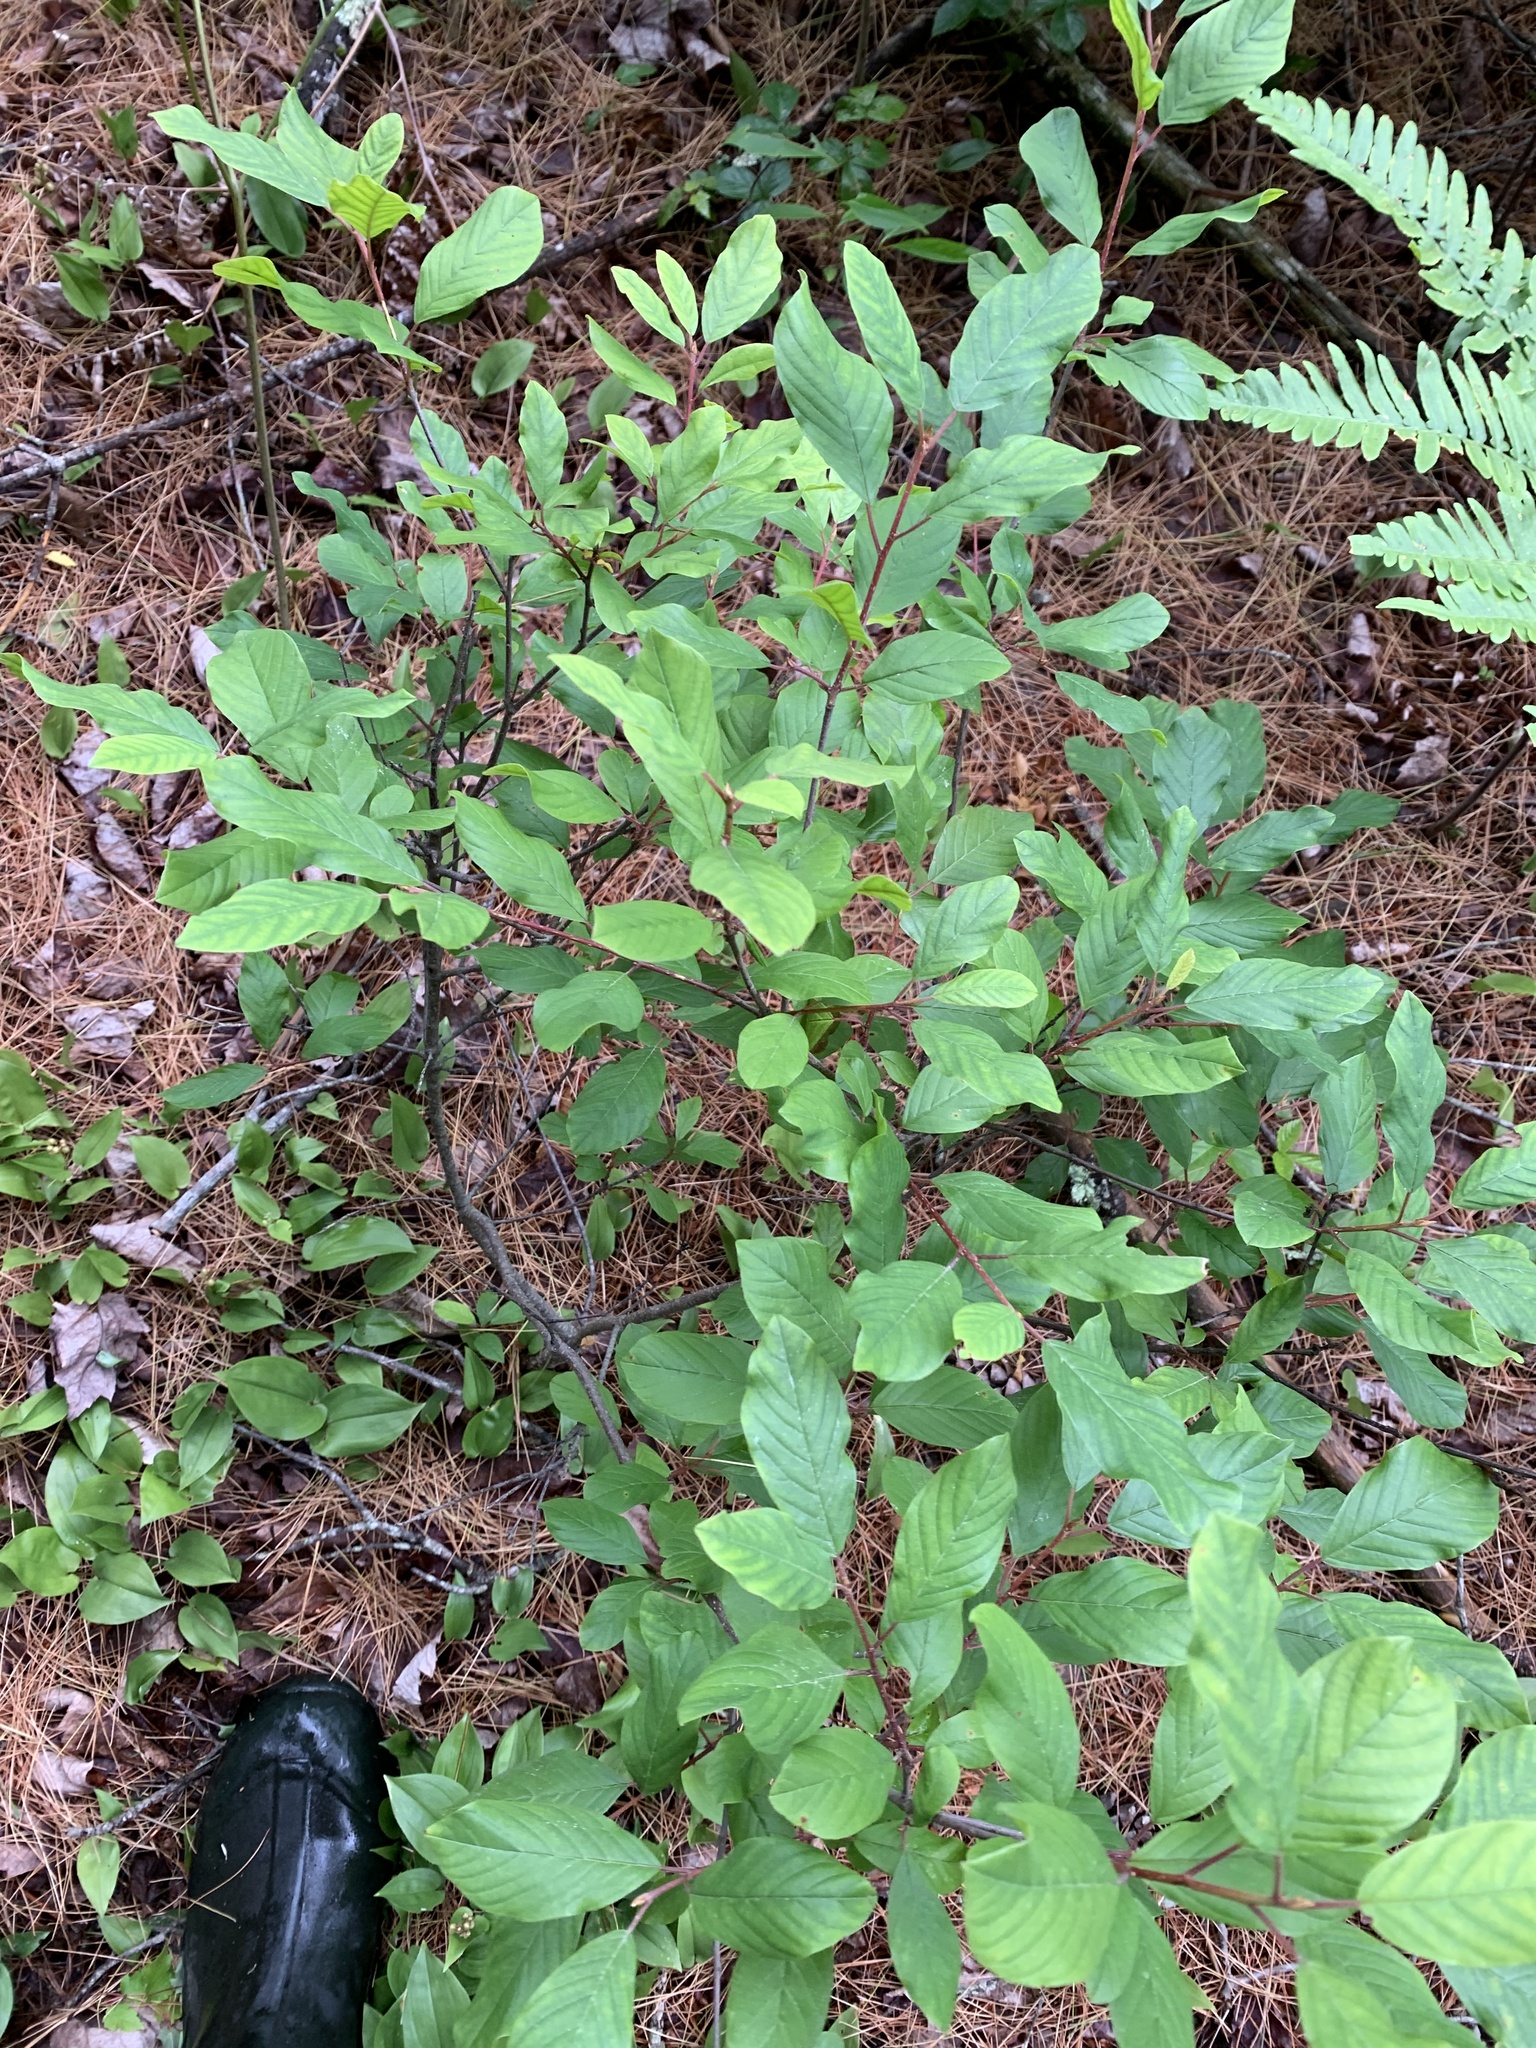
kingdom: Plantae
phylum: Tracheophyta
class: Magnoliopsida
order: Rosales
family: Rhamnaceae
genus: Frangula
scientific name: Frangula alnus
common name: Alder buckthorn
